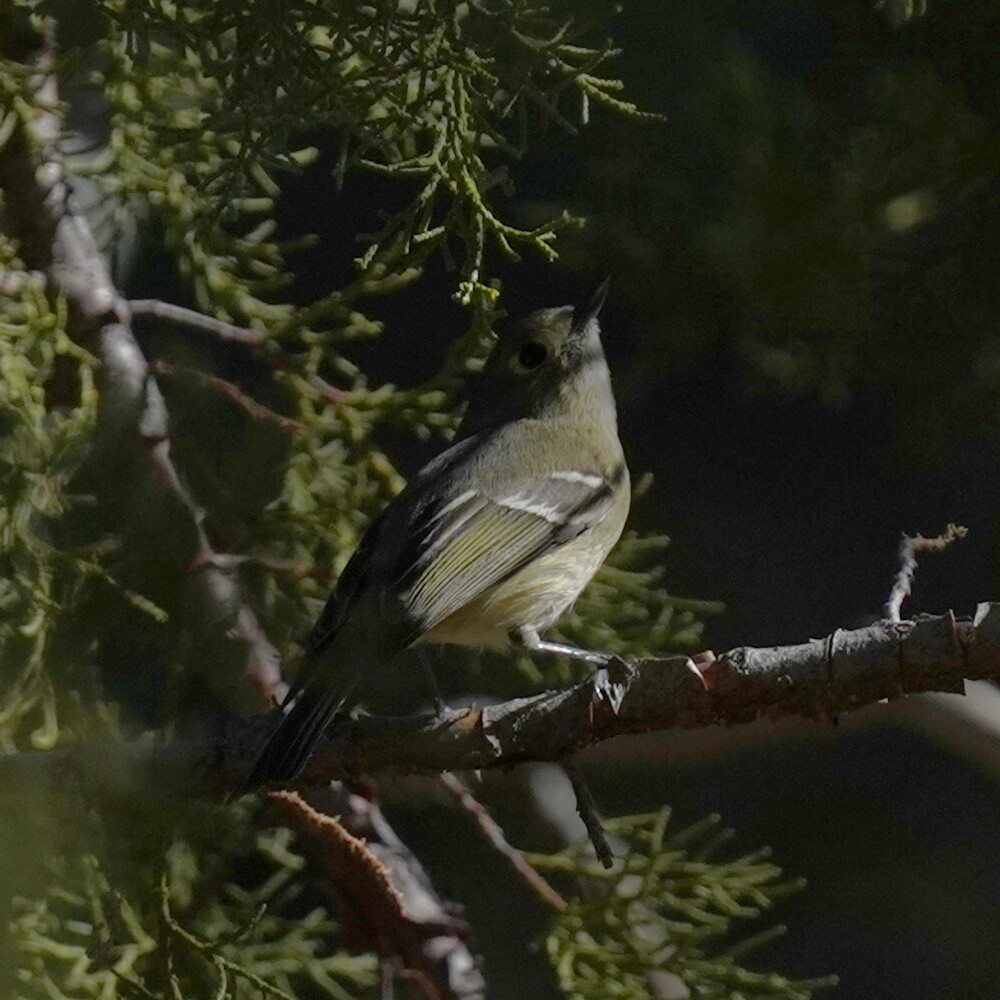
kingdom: Animalia
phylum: Chordata
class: Aves
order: Passeriformes
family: Vireonidae
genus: Vireo
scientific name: Vireo huttoni
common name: Hutton's vireo
